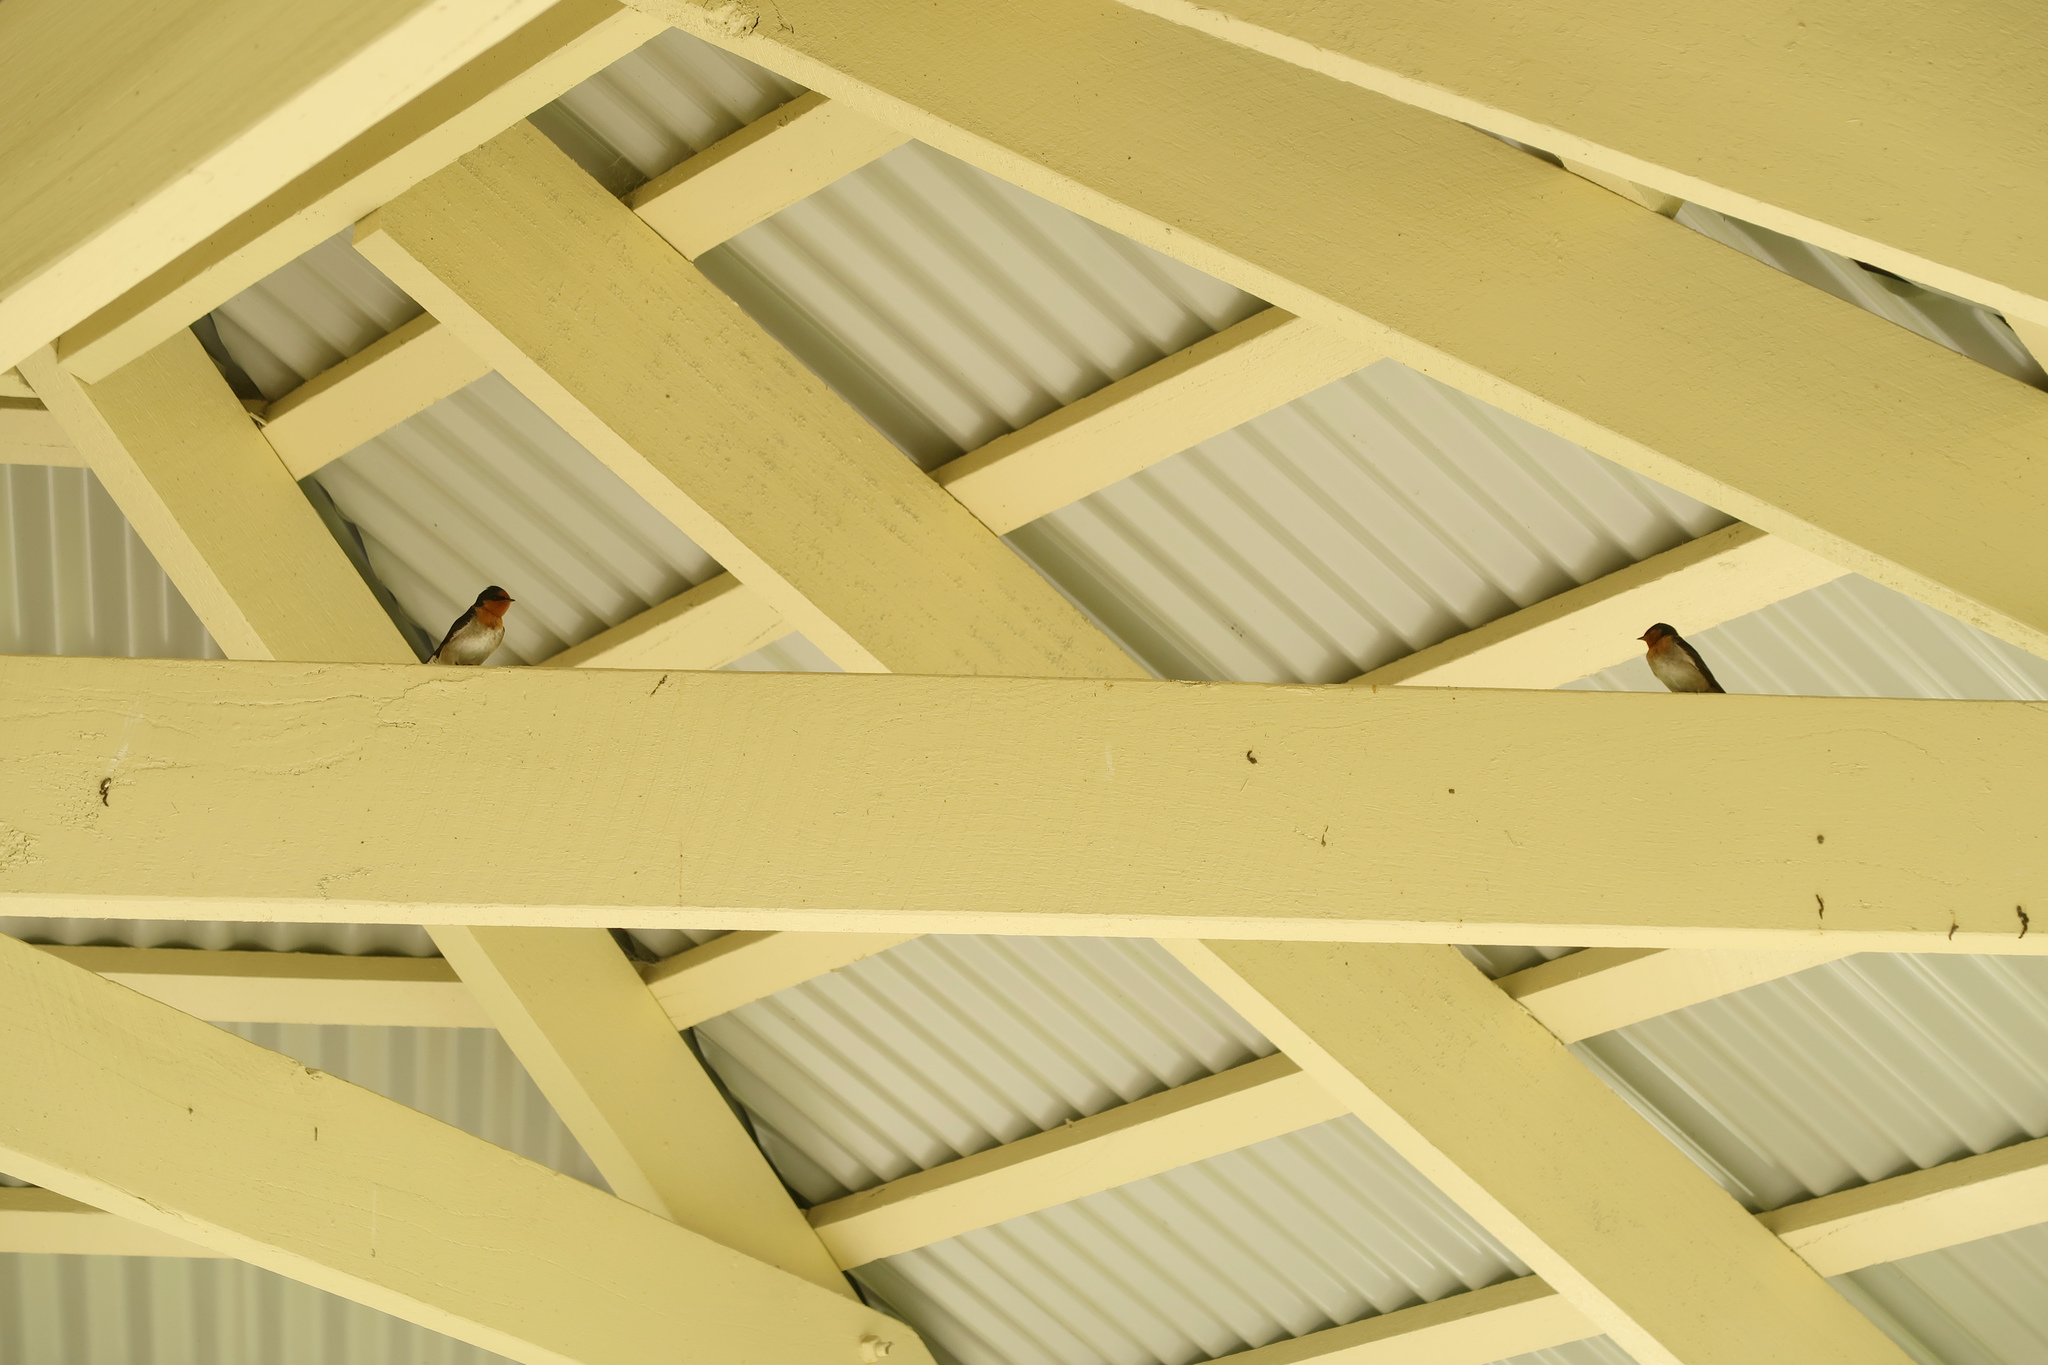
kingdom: Animalia
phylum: Chordata
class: Aves
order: Passeriformes
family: Hirundinidae
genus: Hirundo
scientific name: Hirundo neoxena
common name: Welcome swallow
